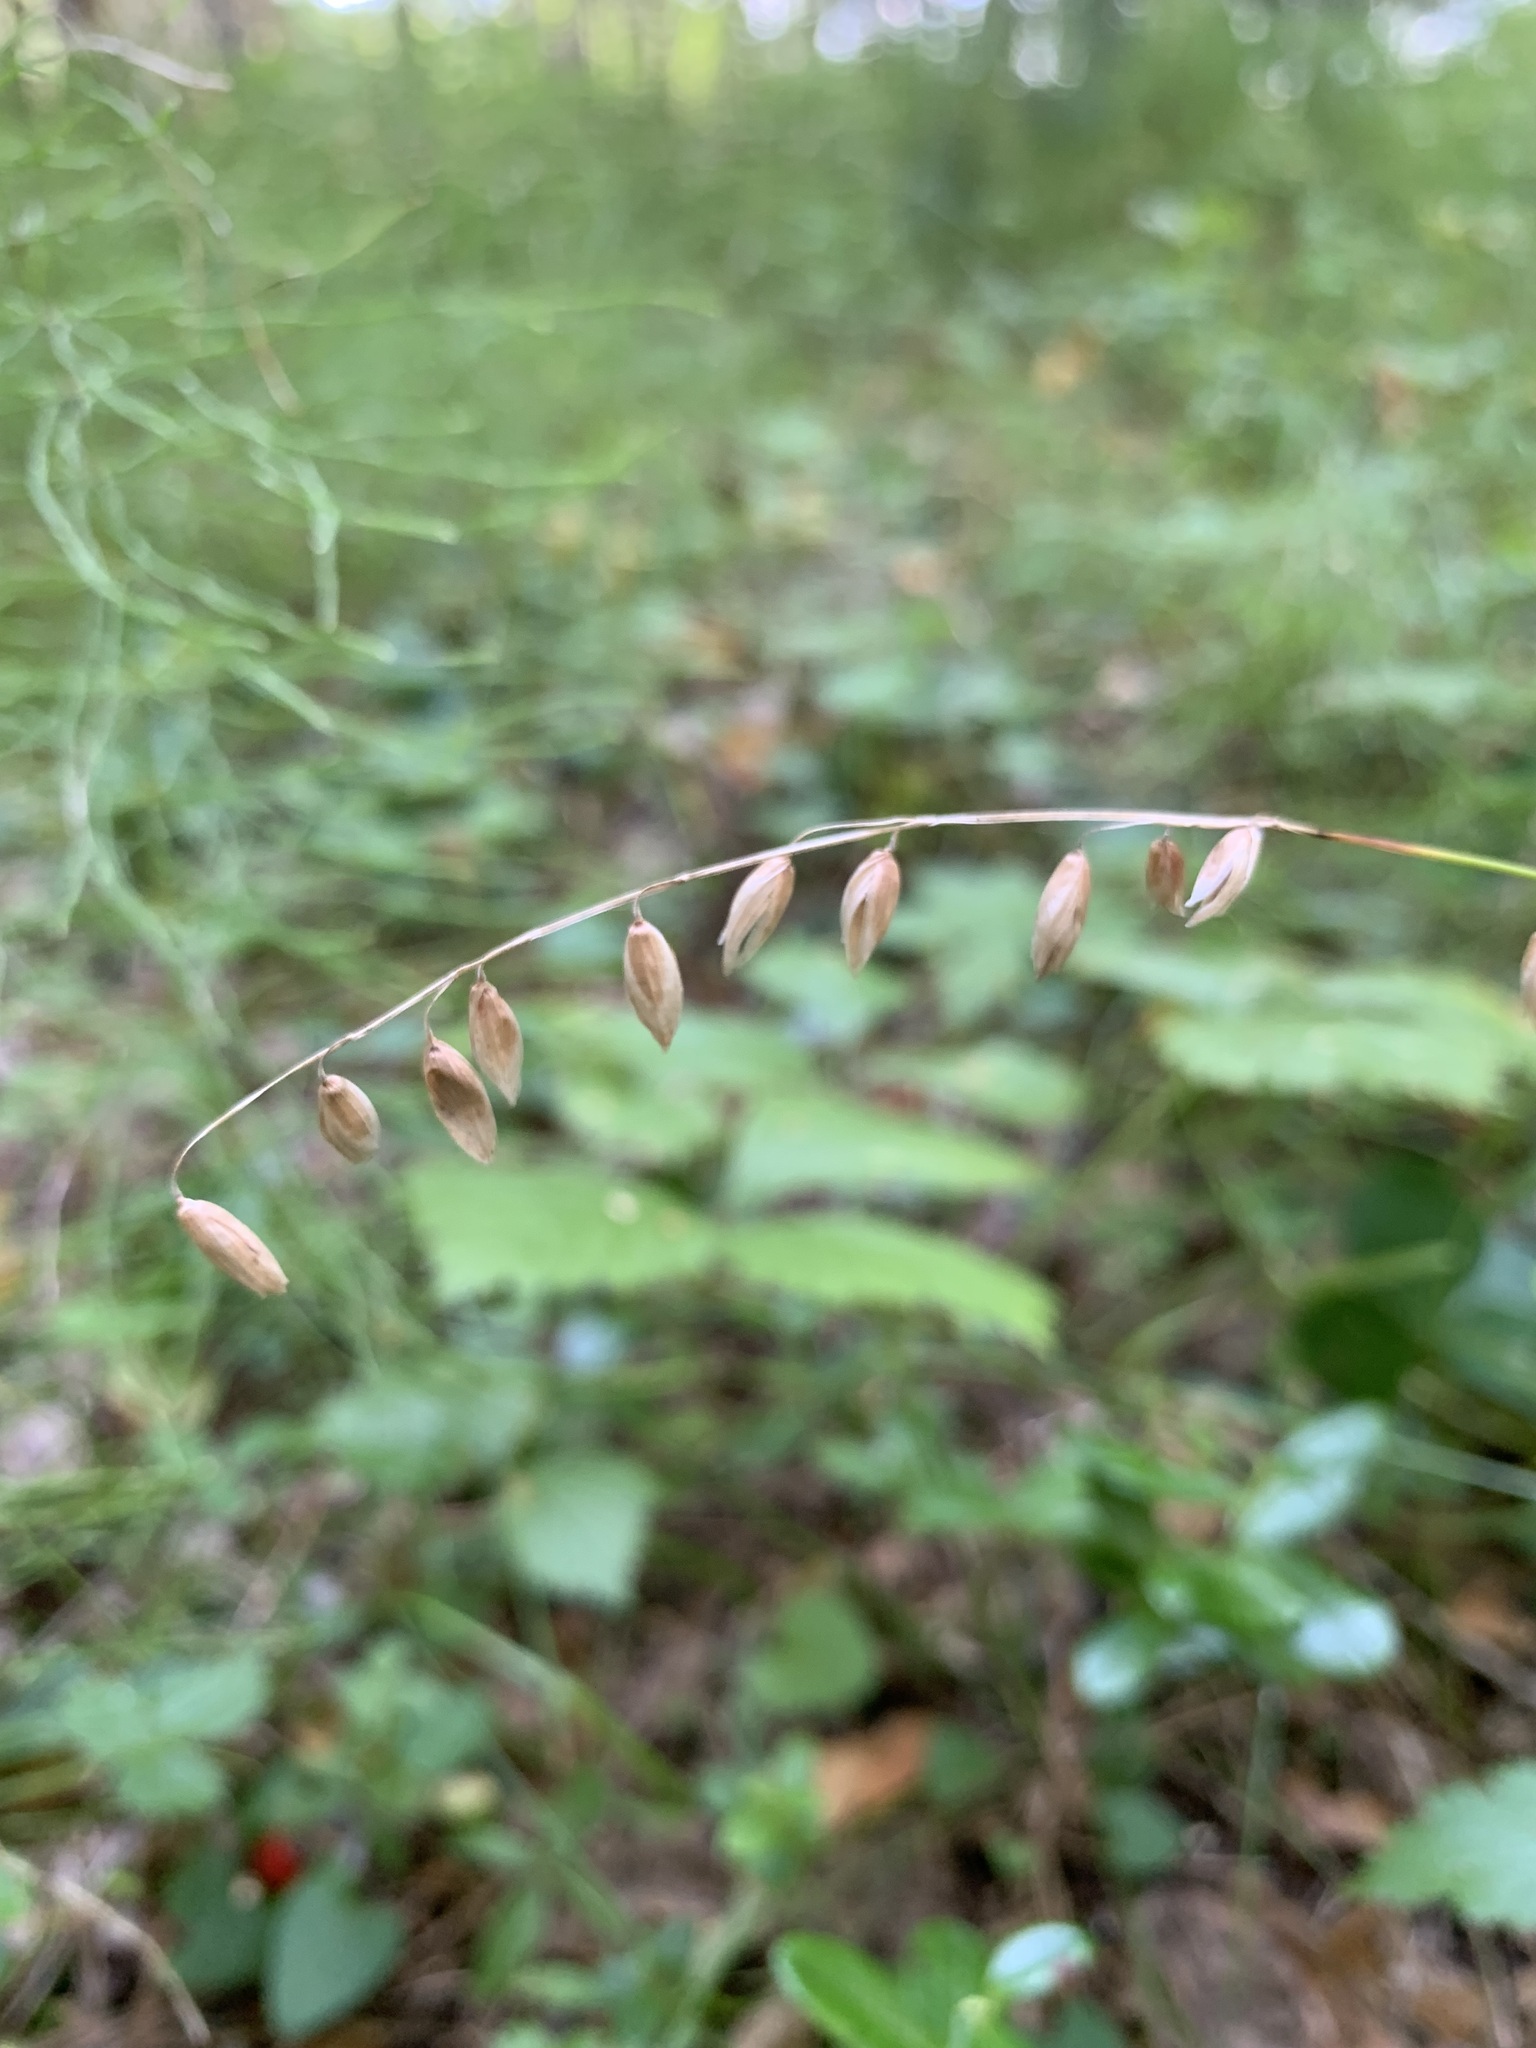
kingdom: Plantae
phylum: Tracheophyta
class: Liliopsida
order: Poales
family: Poaceae
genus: Melica
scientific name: Melica nutans
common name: Mountain melick
